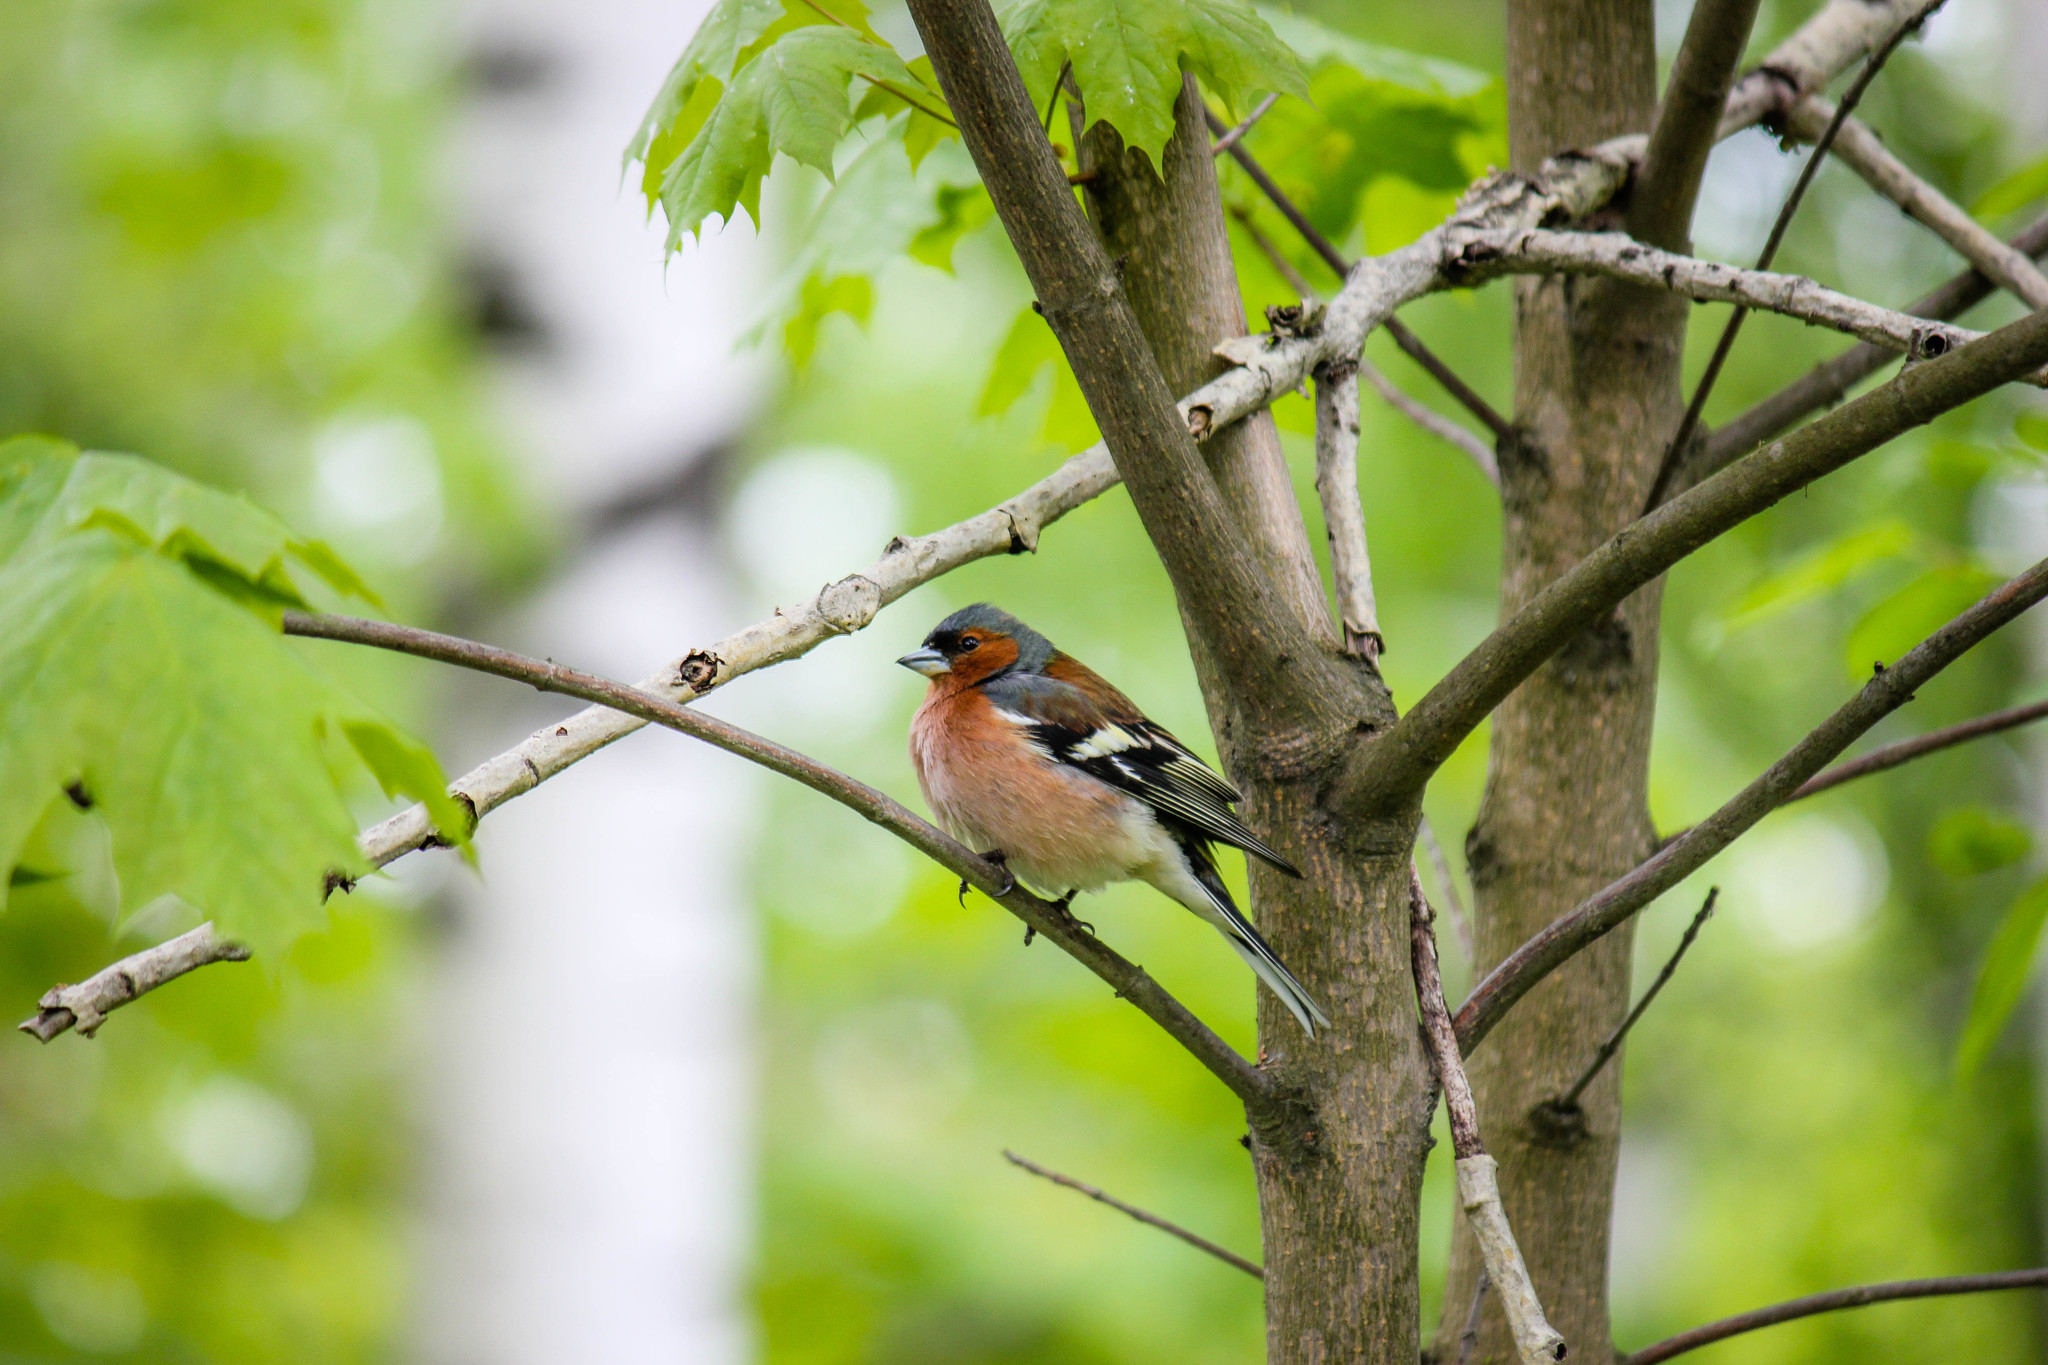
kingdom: Animalia
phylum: Chordata
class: Aves
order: Passeriformes
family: Fringillidae
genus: Fringilla
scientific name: Fringilla coelebs
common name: Common chaffinch
